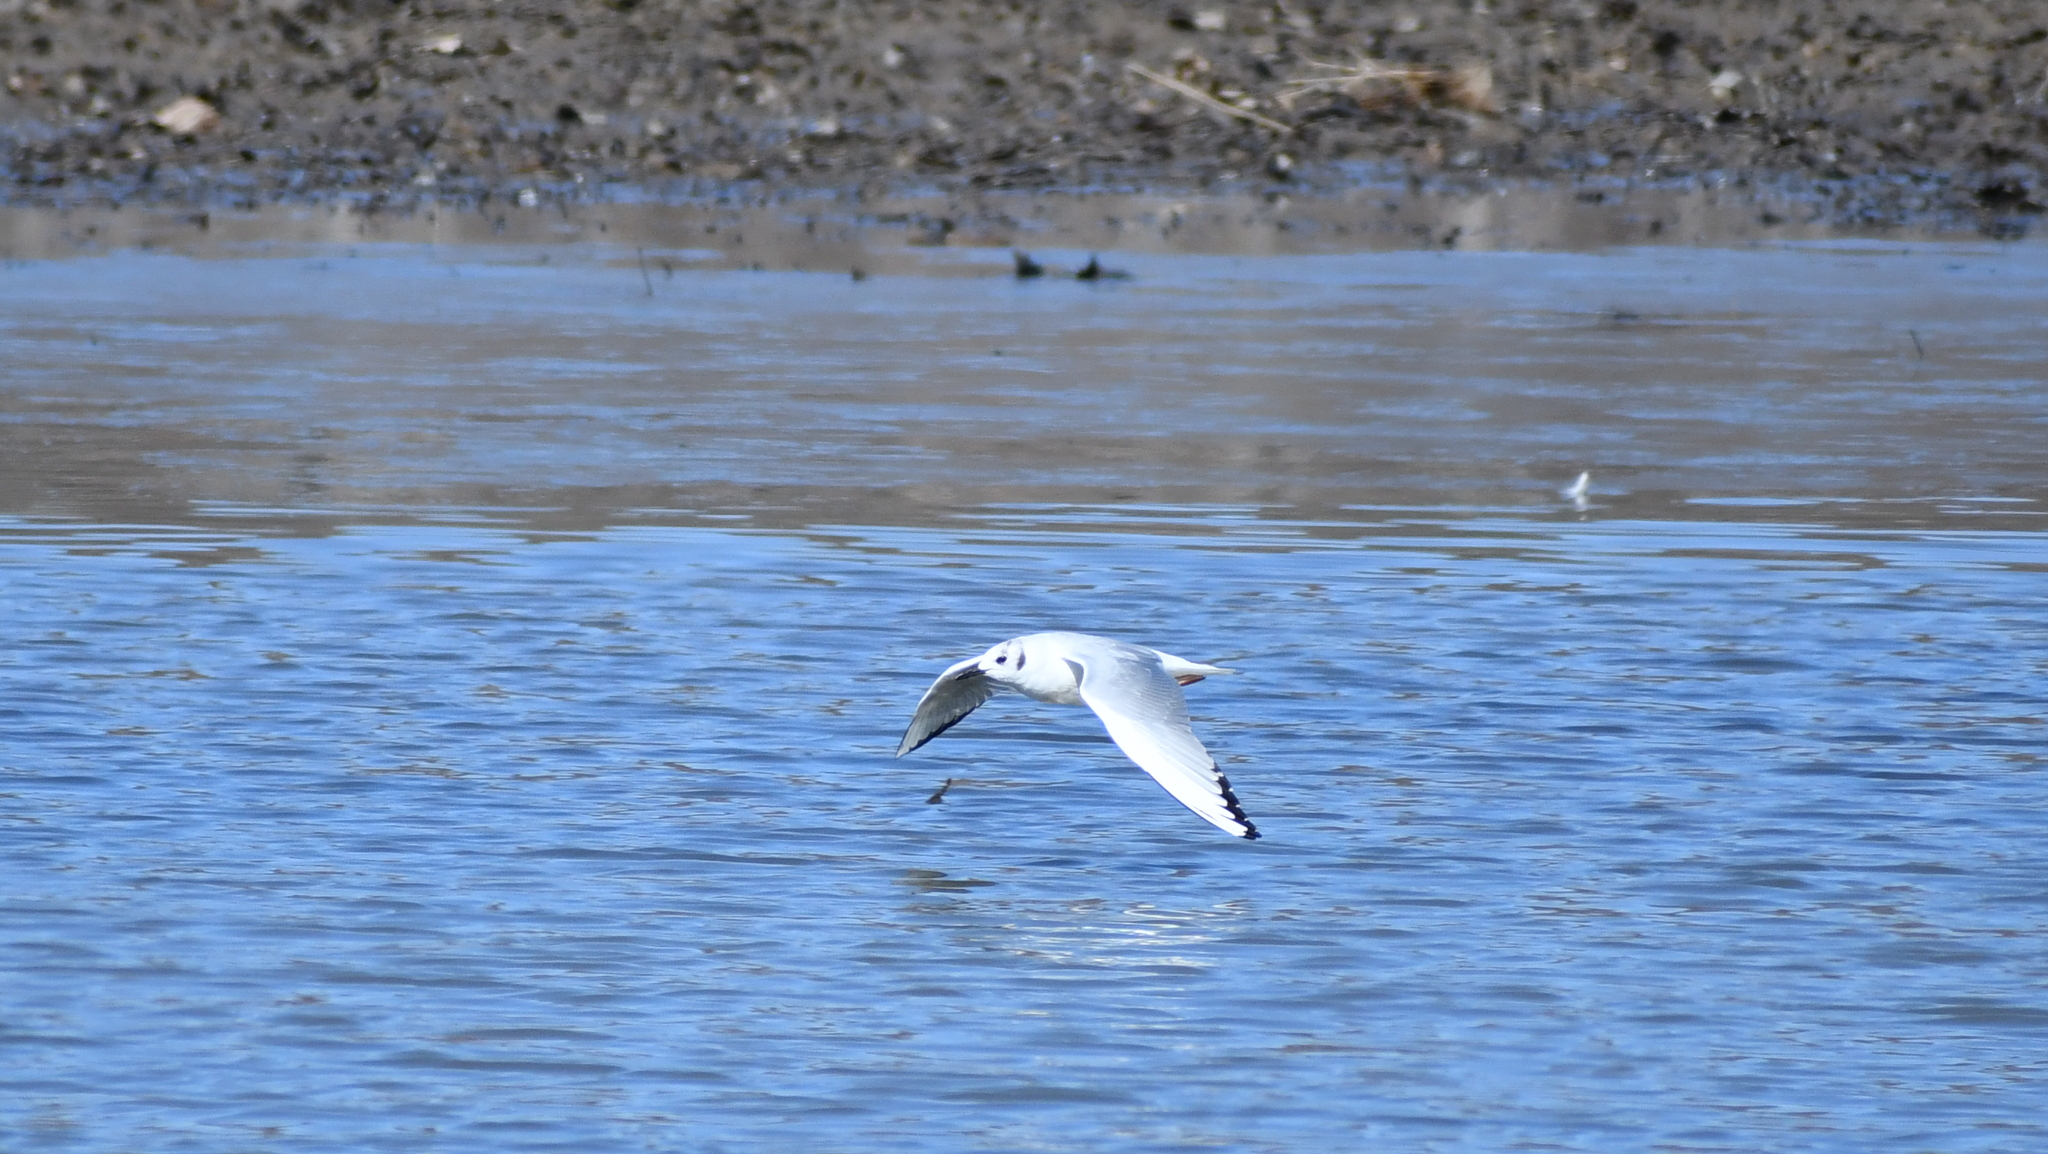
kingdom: Animalia
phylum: Chordata
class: Aves
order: Charadriiformes
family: Laridae
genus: Chroicocephalus
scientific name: Chroicocephalus philadelphia
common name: Bonaparte's gull
